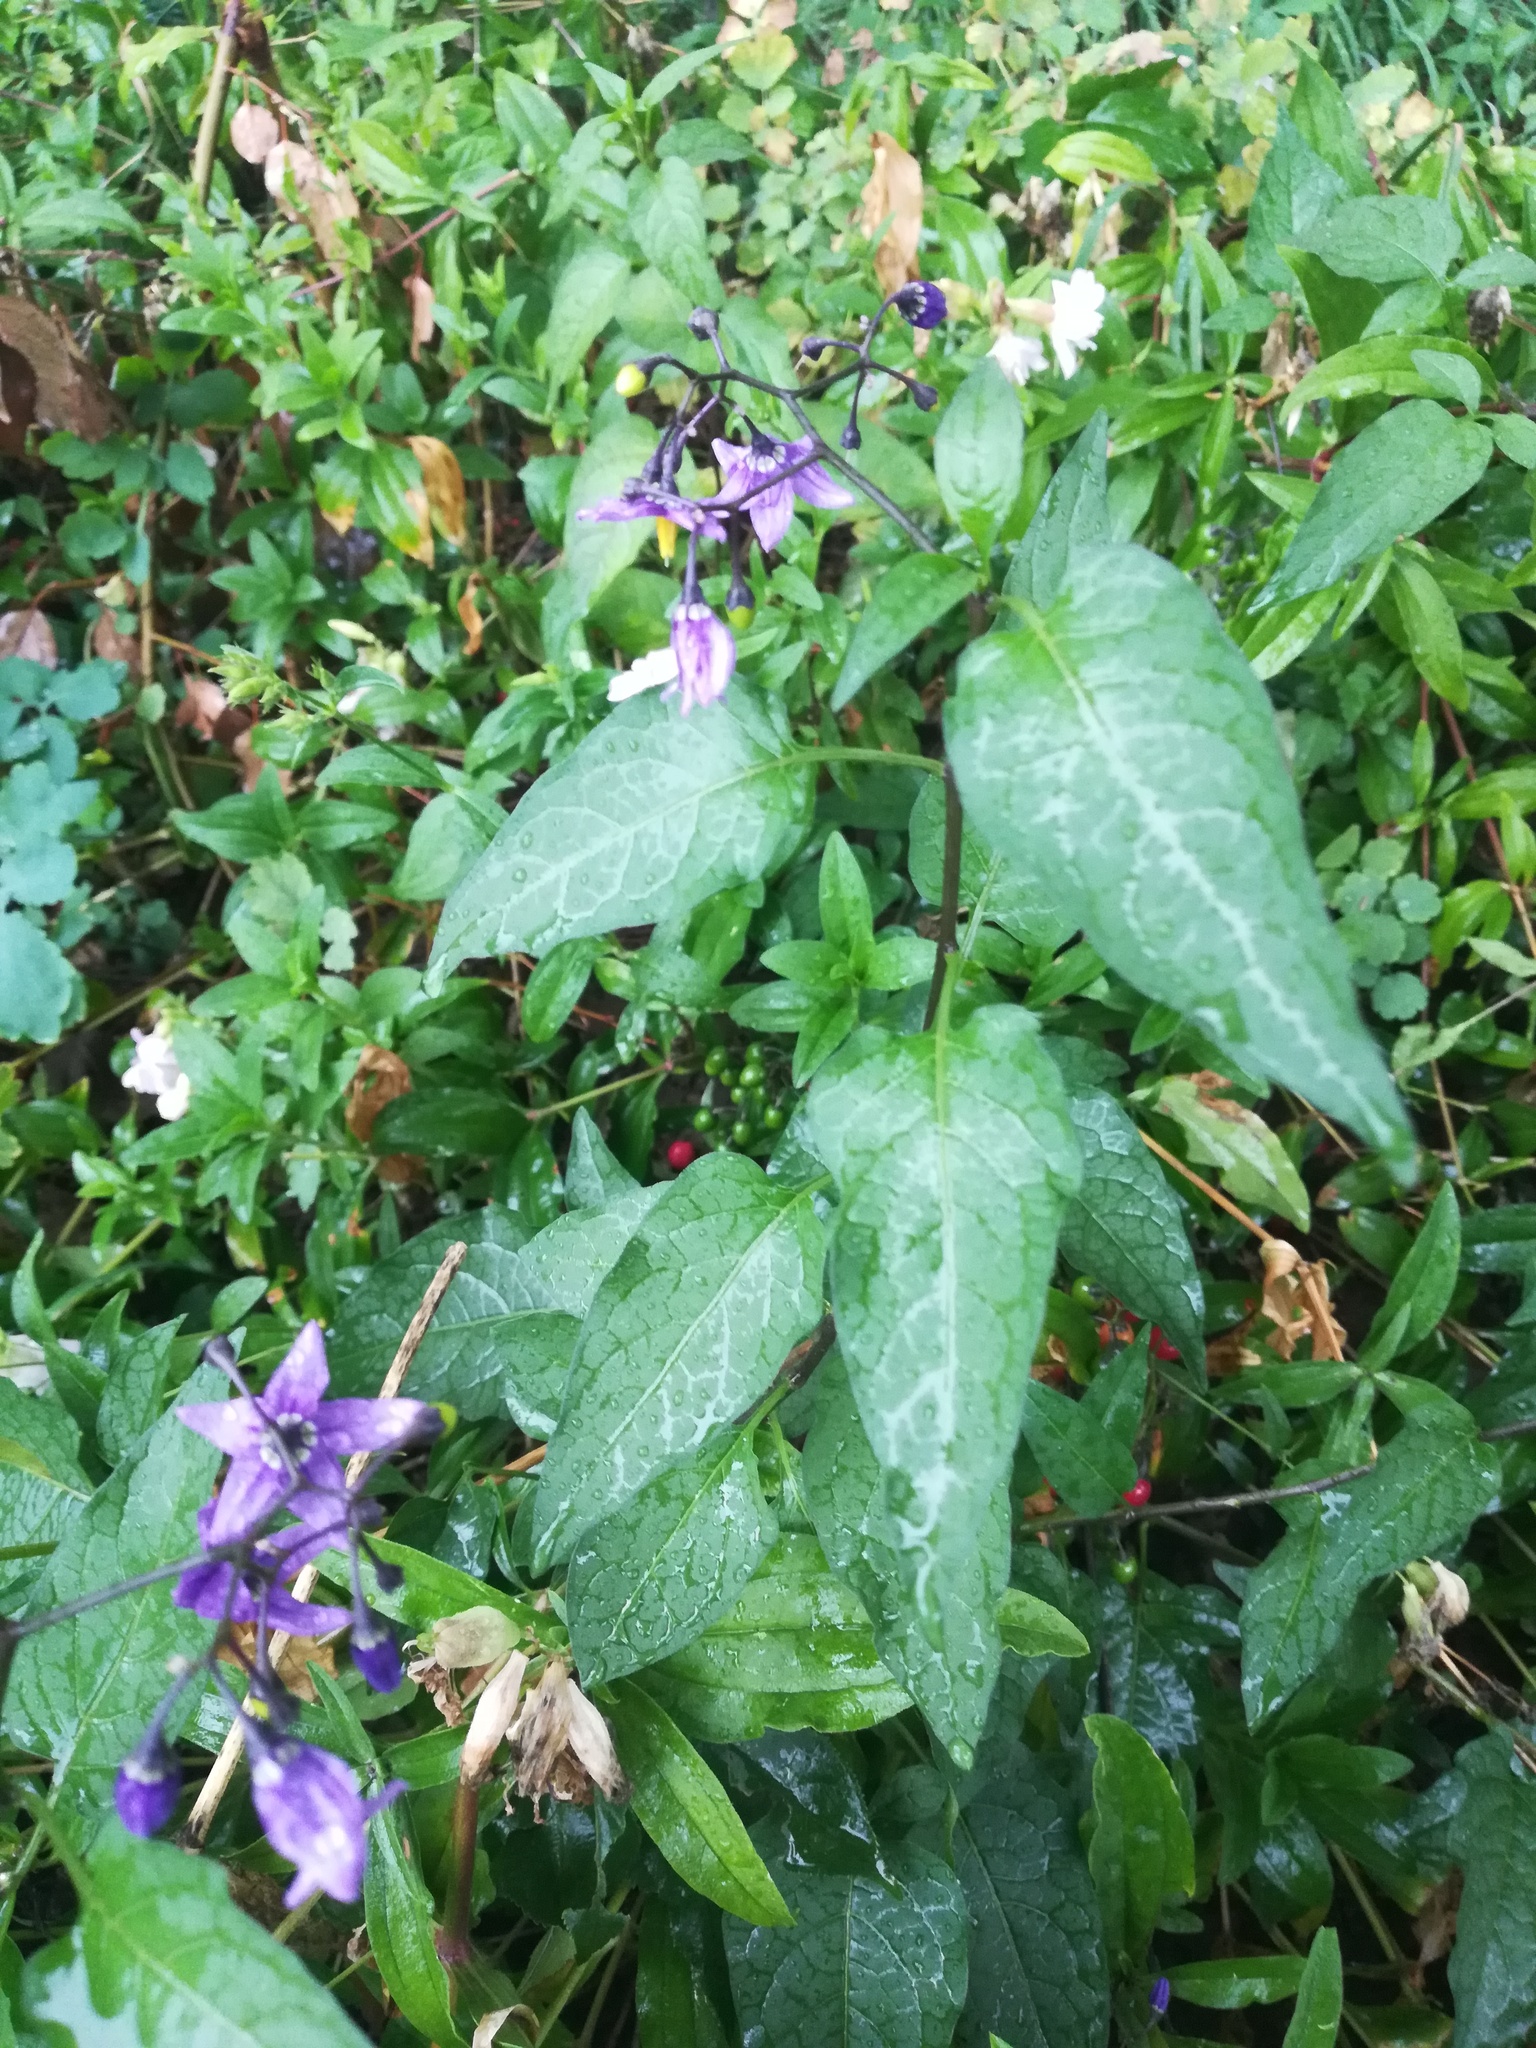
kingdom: Plantae
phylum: Tracheophyta
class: Magnoliopsida
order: Solanales
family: Solanaceae
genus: Solanum
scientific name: Solanum dulcamara
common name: Climbing nightshade
